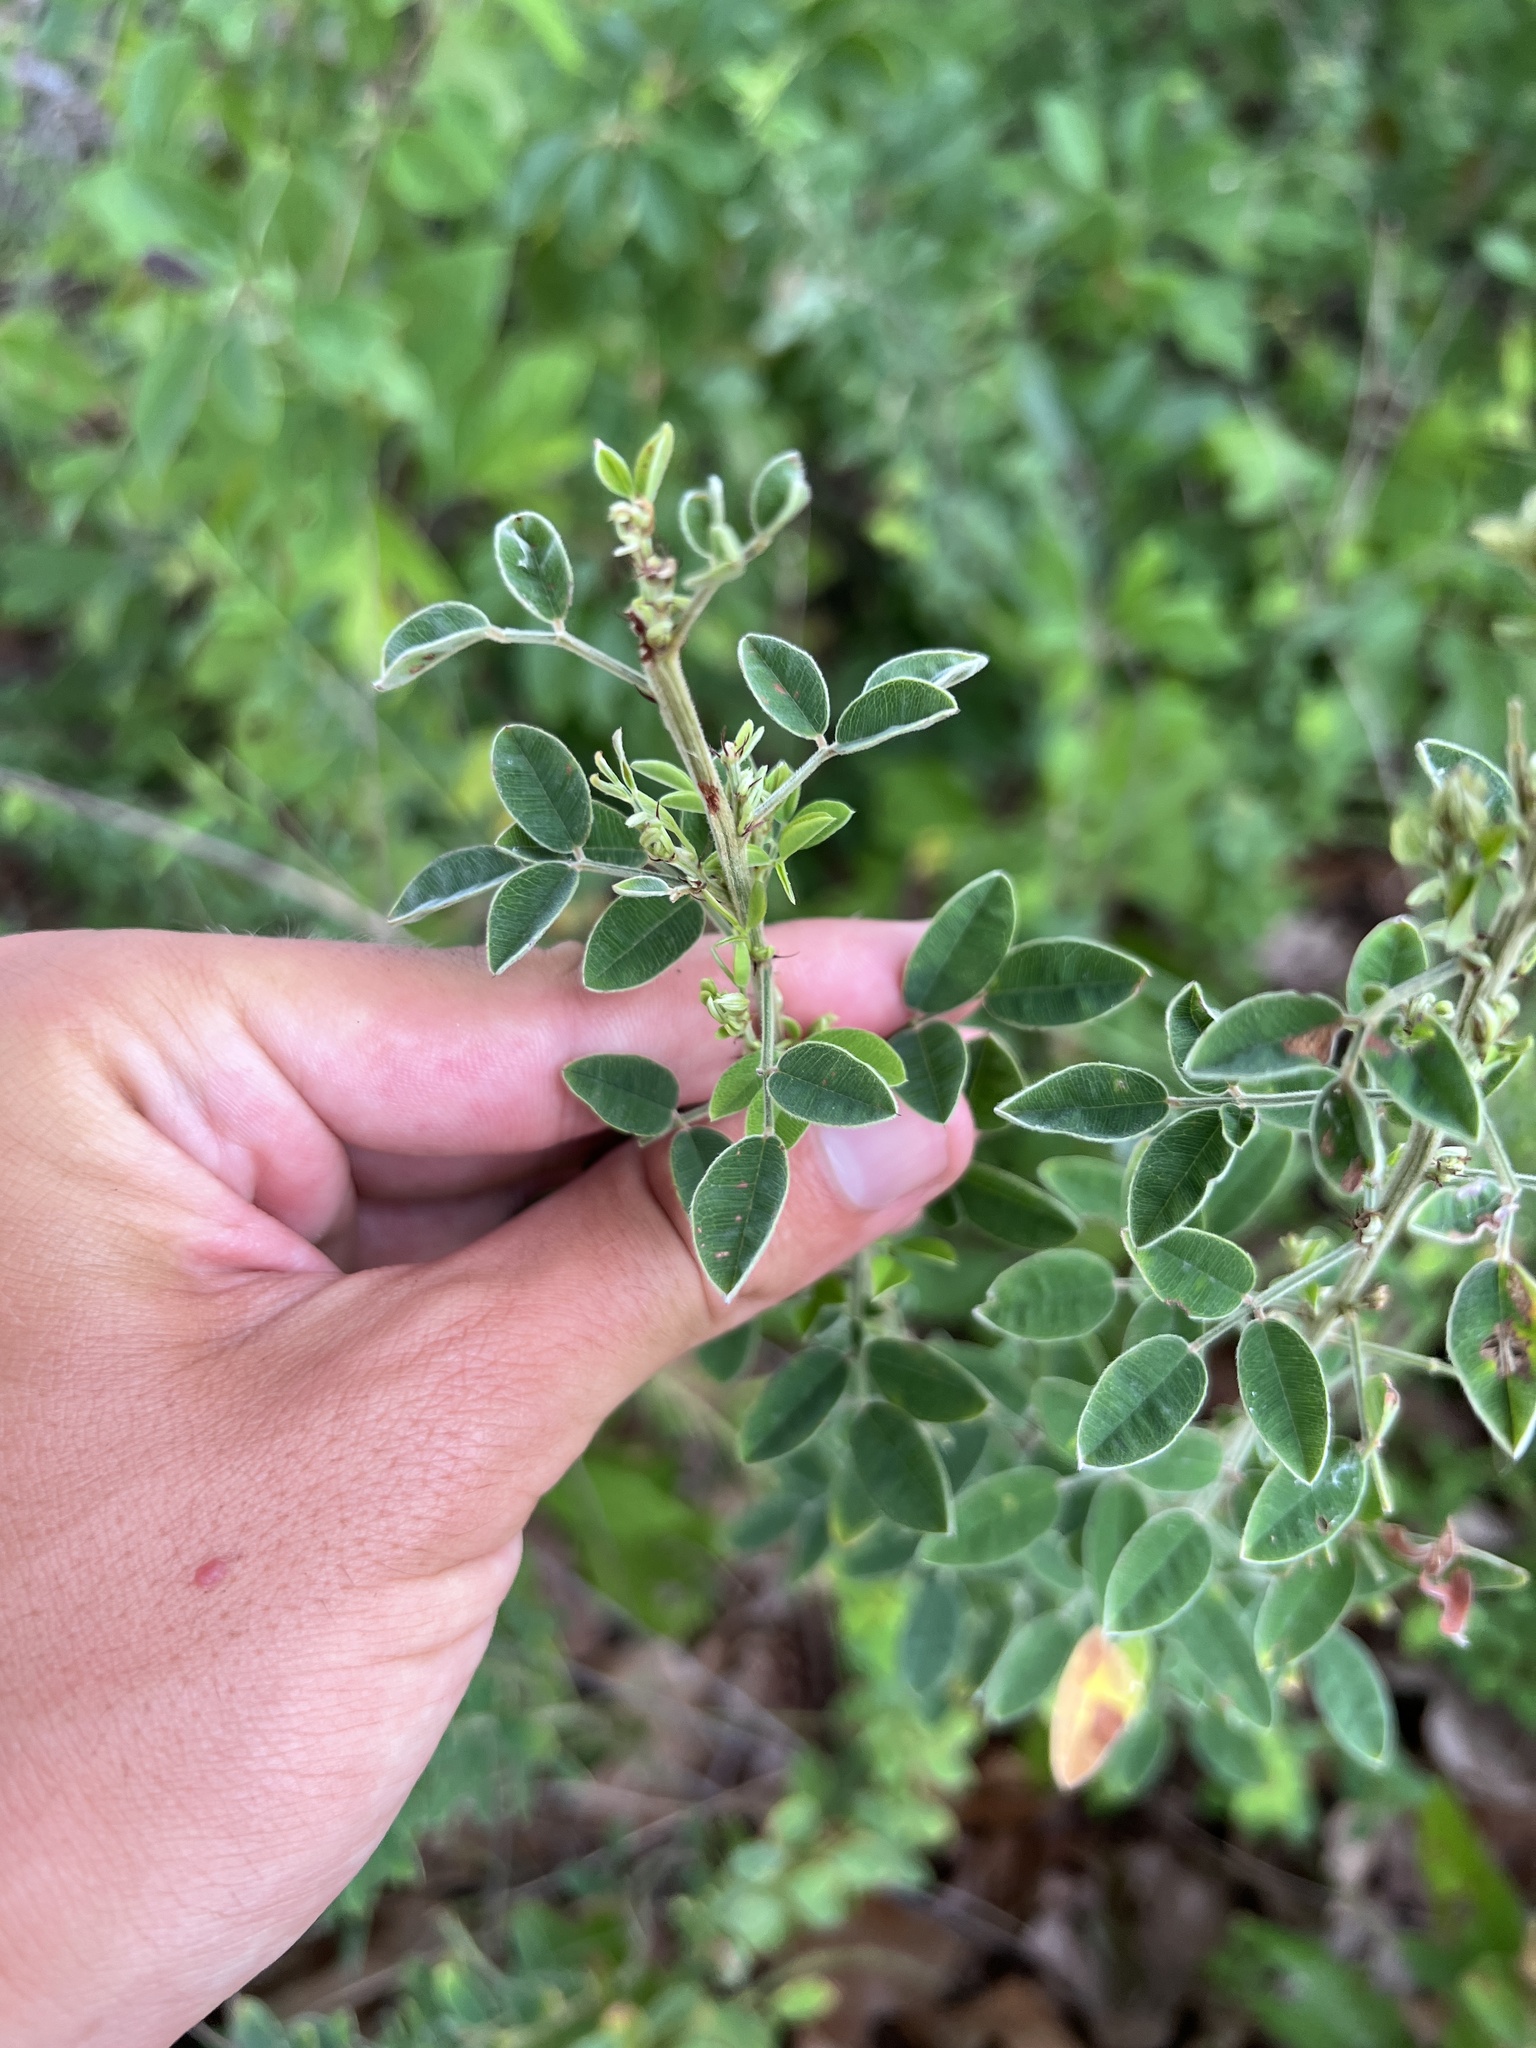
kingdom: Plantae
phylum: Tracheophyta
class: Magnoliopsida
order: Fabales
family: Fabaceae
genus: Lespedeza
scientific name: Lespedeza stuevei
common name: Tall bush-clover
